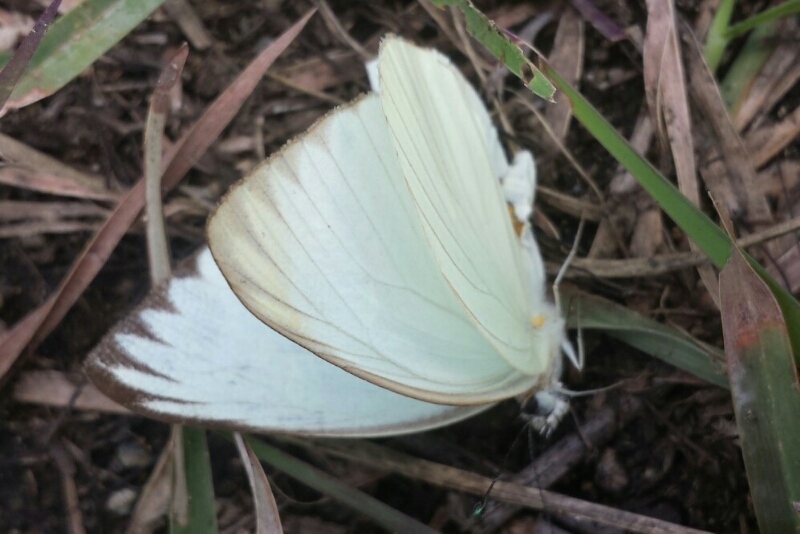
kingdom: Animalia
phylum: Arthropoda
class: Insecta
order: Lepidoptera
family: Pieridae
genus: Ascia
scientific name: Ascia monuste
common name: Great southern white
